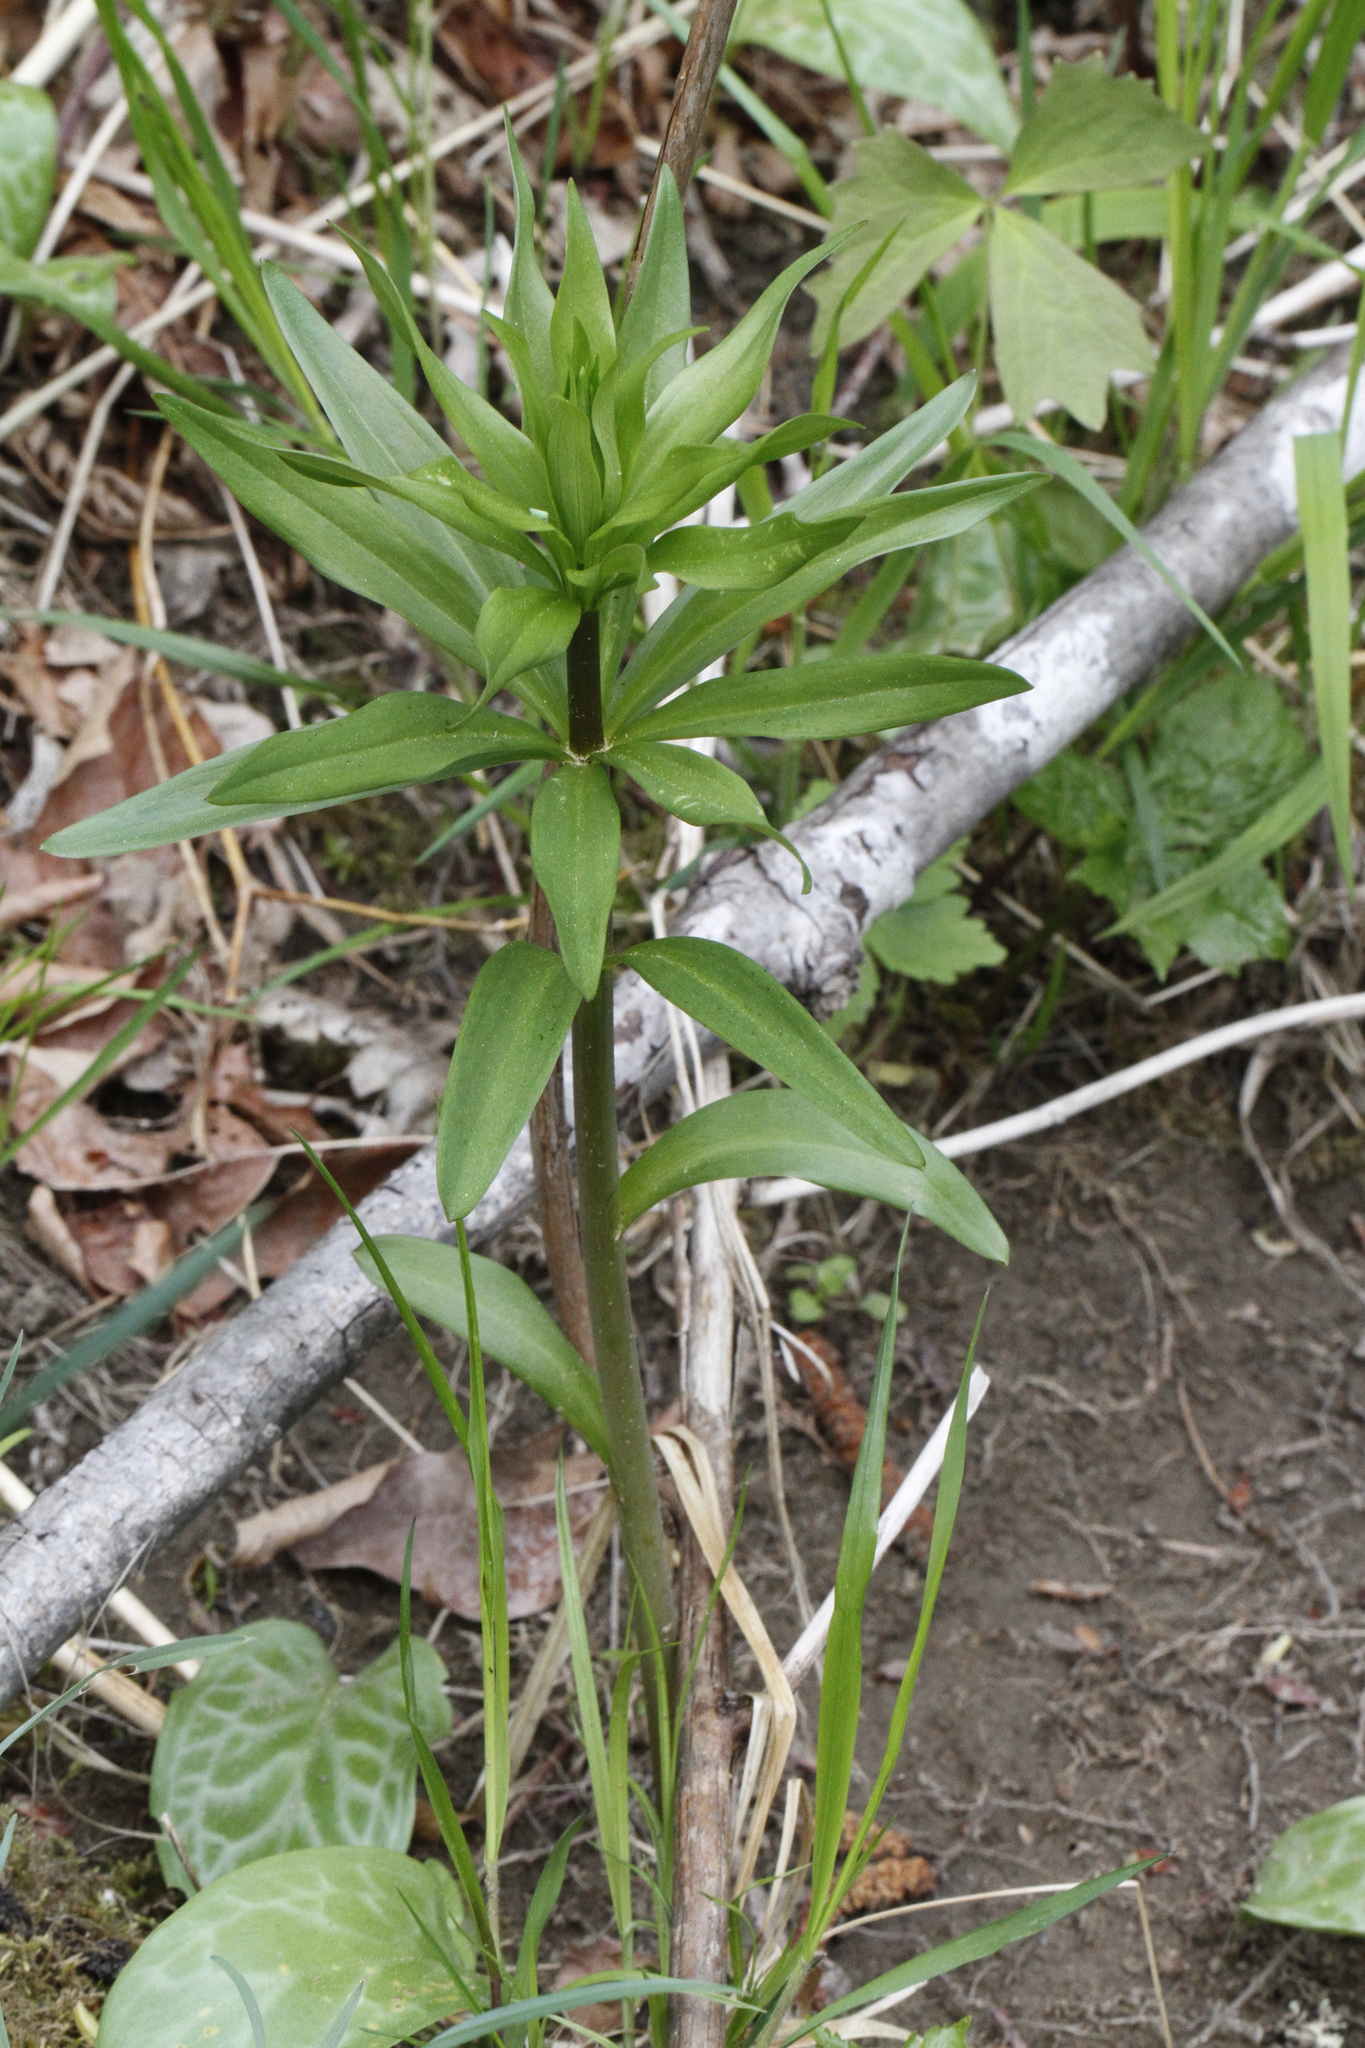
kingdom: Plantae
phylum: Tracheophyta
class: Liliopsida
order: Liliales
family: Liliaceae
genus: Fritillaria
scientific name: Fritillaria camschatcensis
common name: Kamchatka fritillary
